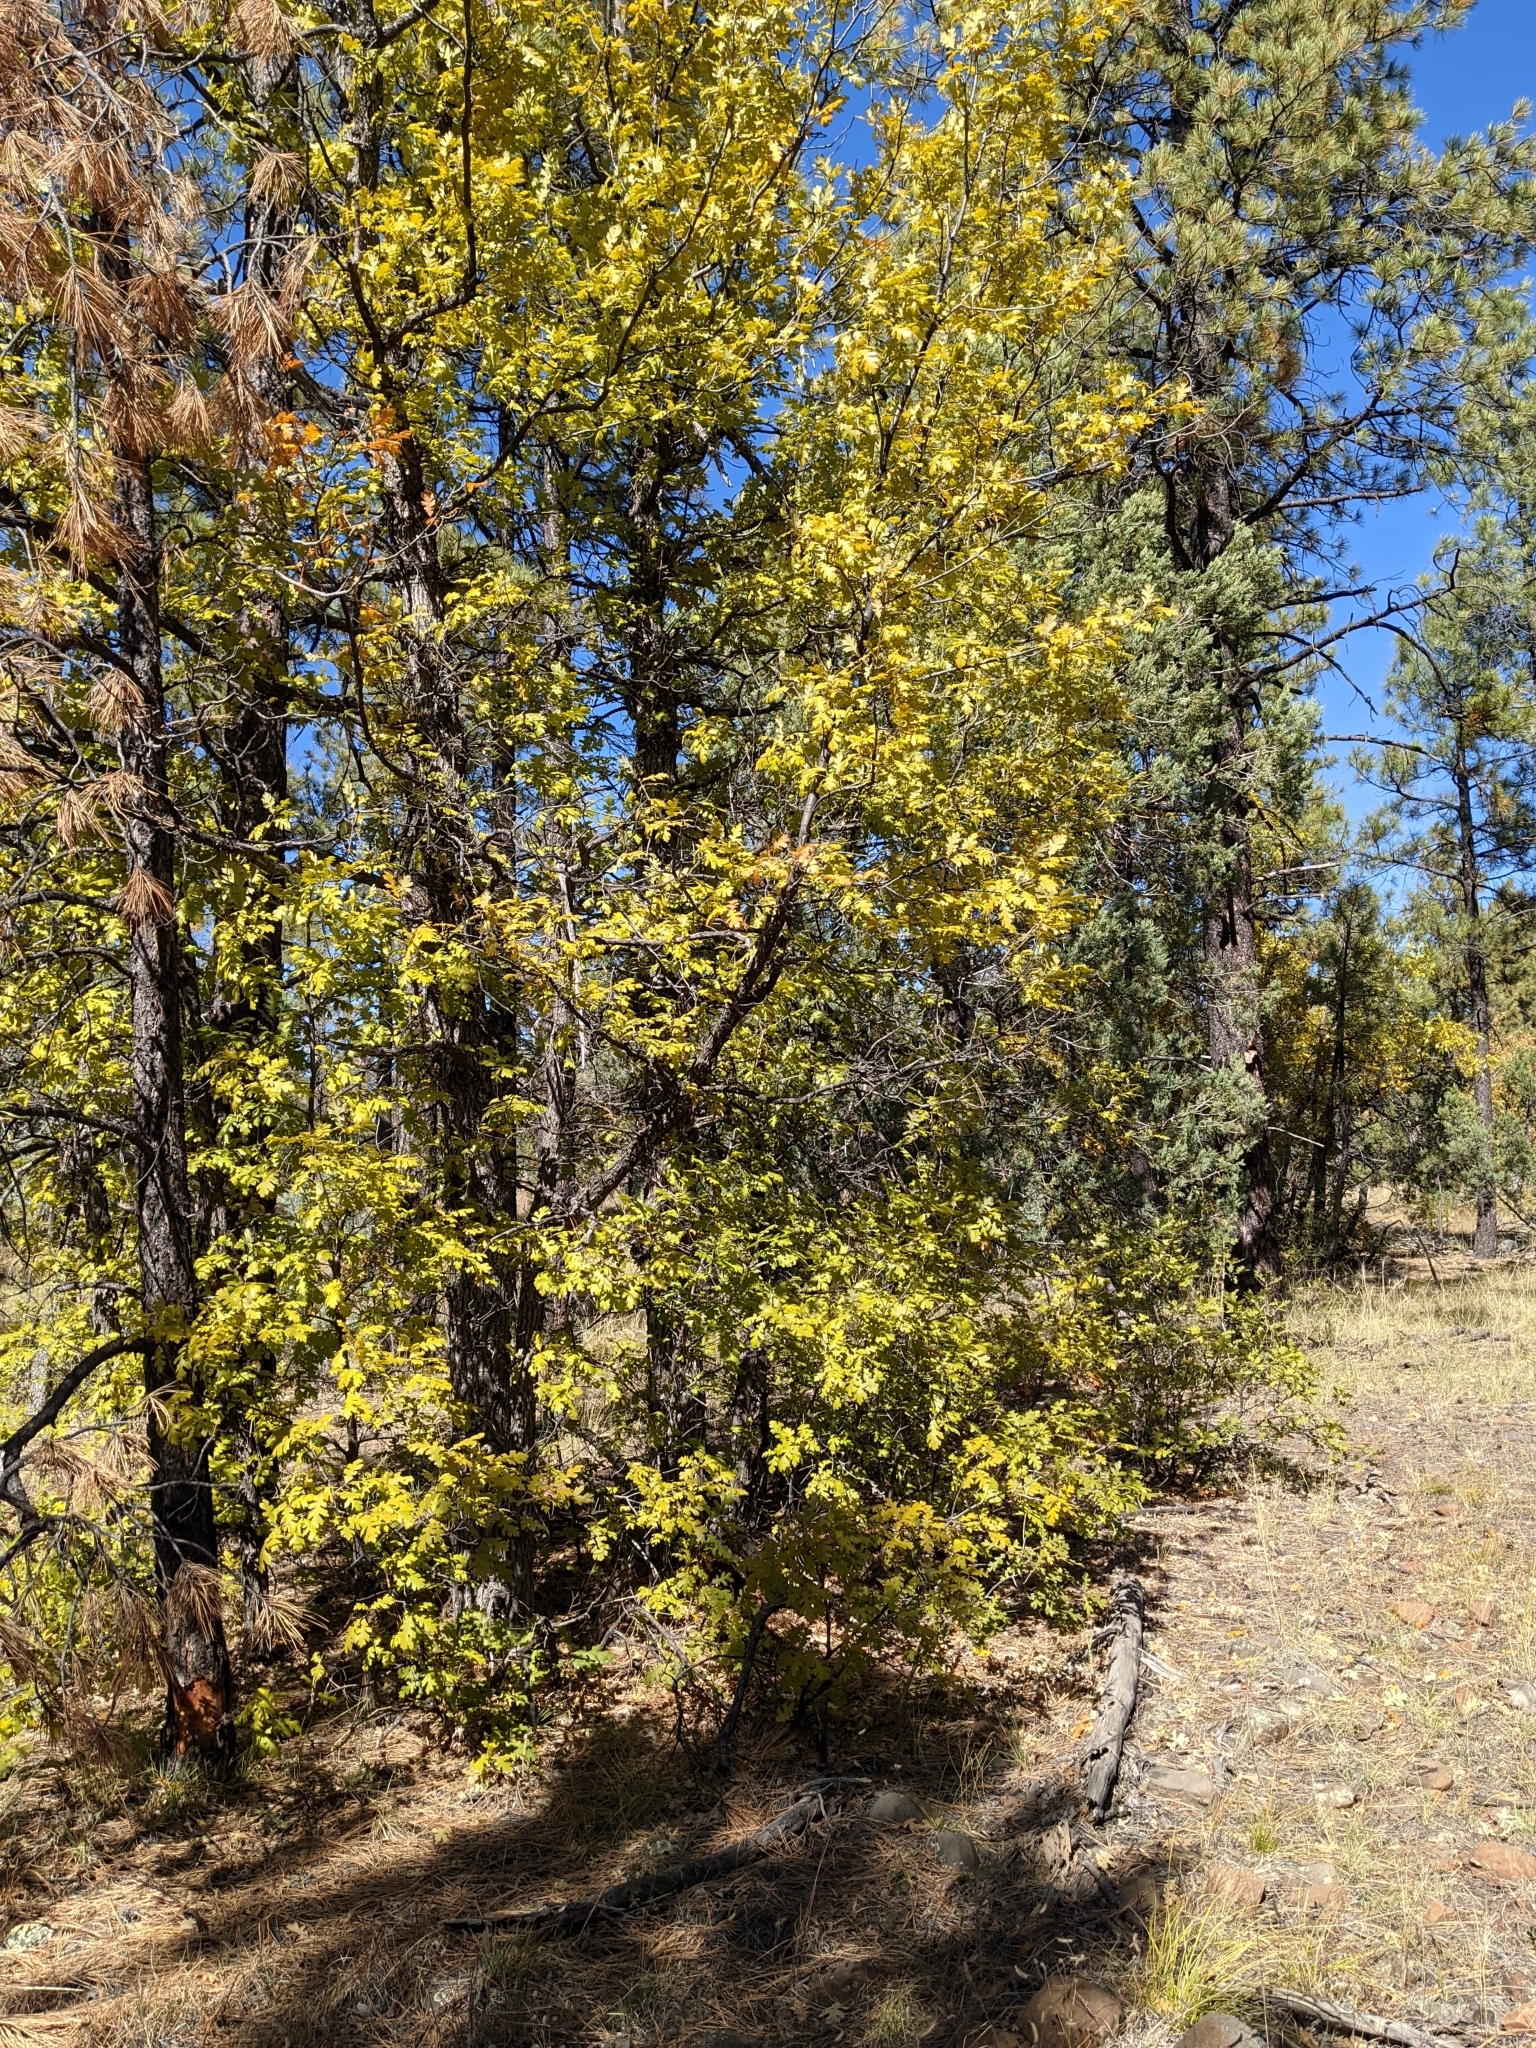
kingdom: Plantae
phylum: Tracheophyta
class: Magnoliopsida
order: Fagales
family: Fagaceae
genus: Quercus
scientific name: Quercus gambelii
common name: Gambel oak
